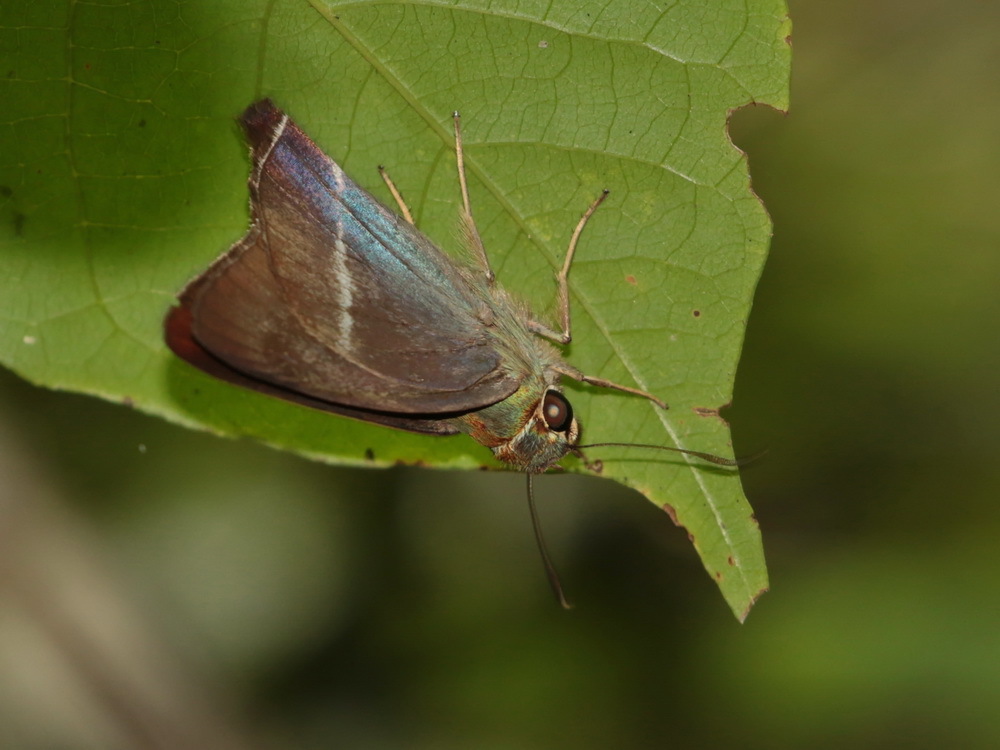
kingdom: Animalia
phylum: Arthropoda
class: Insecta
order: Lepidoptera
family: Hesperiidae
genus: Hasora
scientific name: Hasora chromus
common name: Common banded awl
